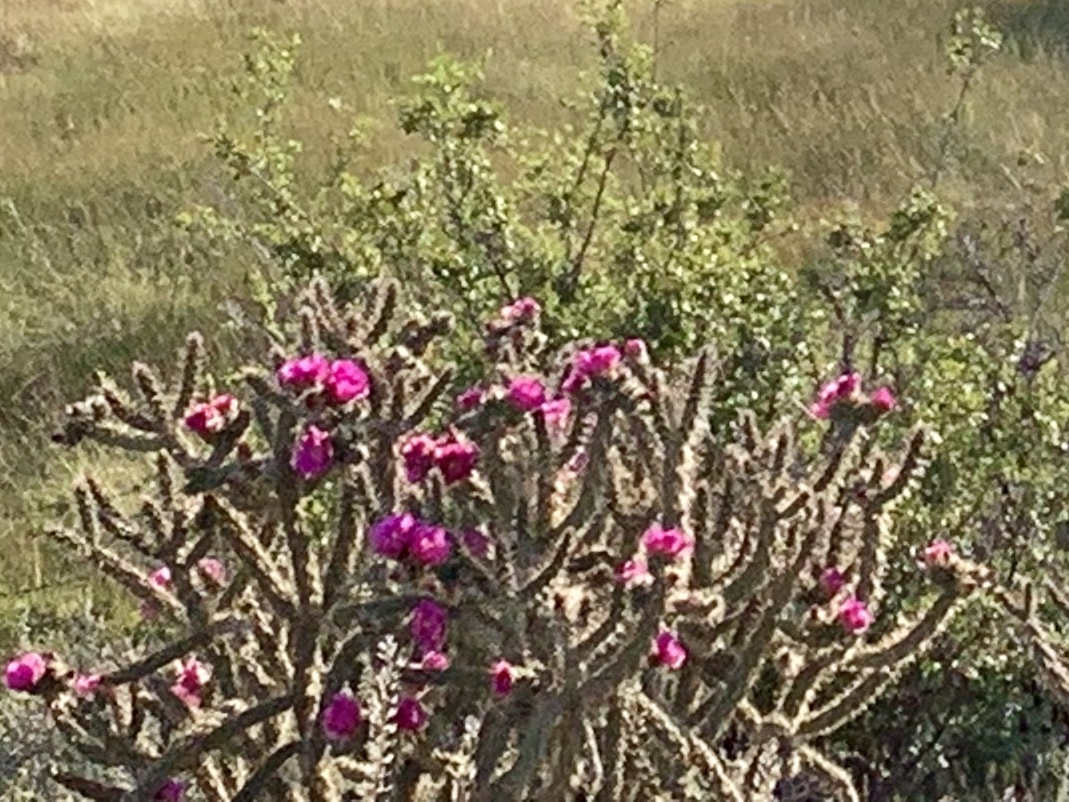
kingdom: Plantae
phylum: Tracheophyta
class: Magnoliopsida
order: Caryophyllales
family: Cactaceae
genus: Cylindropuntia
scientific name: Cylindropuntia imbricata
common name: Candelabrum cactus
